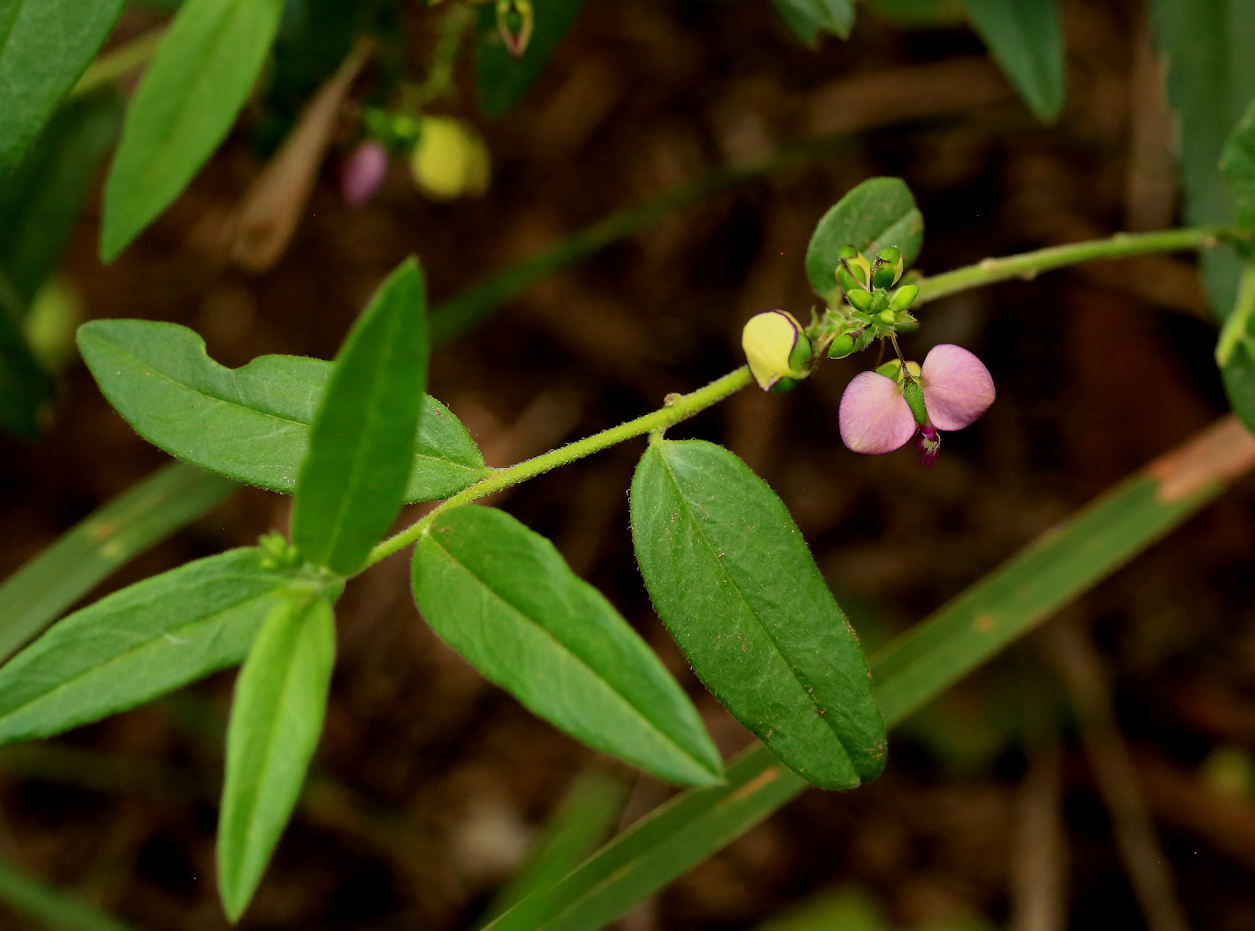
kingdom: Plantae
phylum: Tracheophyta
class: Magnoliopsida
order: Fabales
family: Polygalaceae
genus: Polygala
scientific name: Polygala sphenoptera
